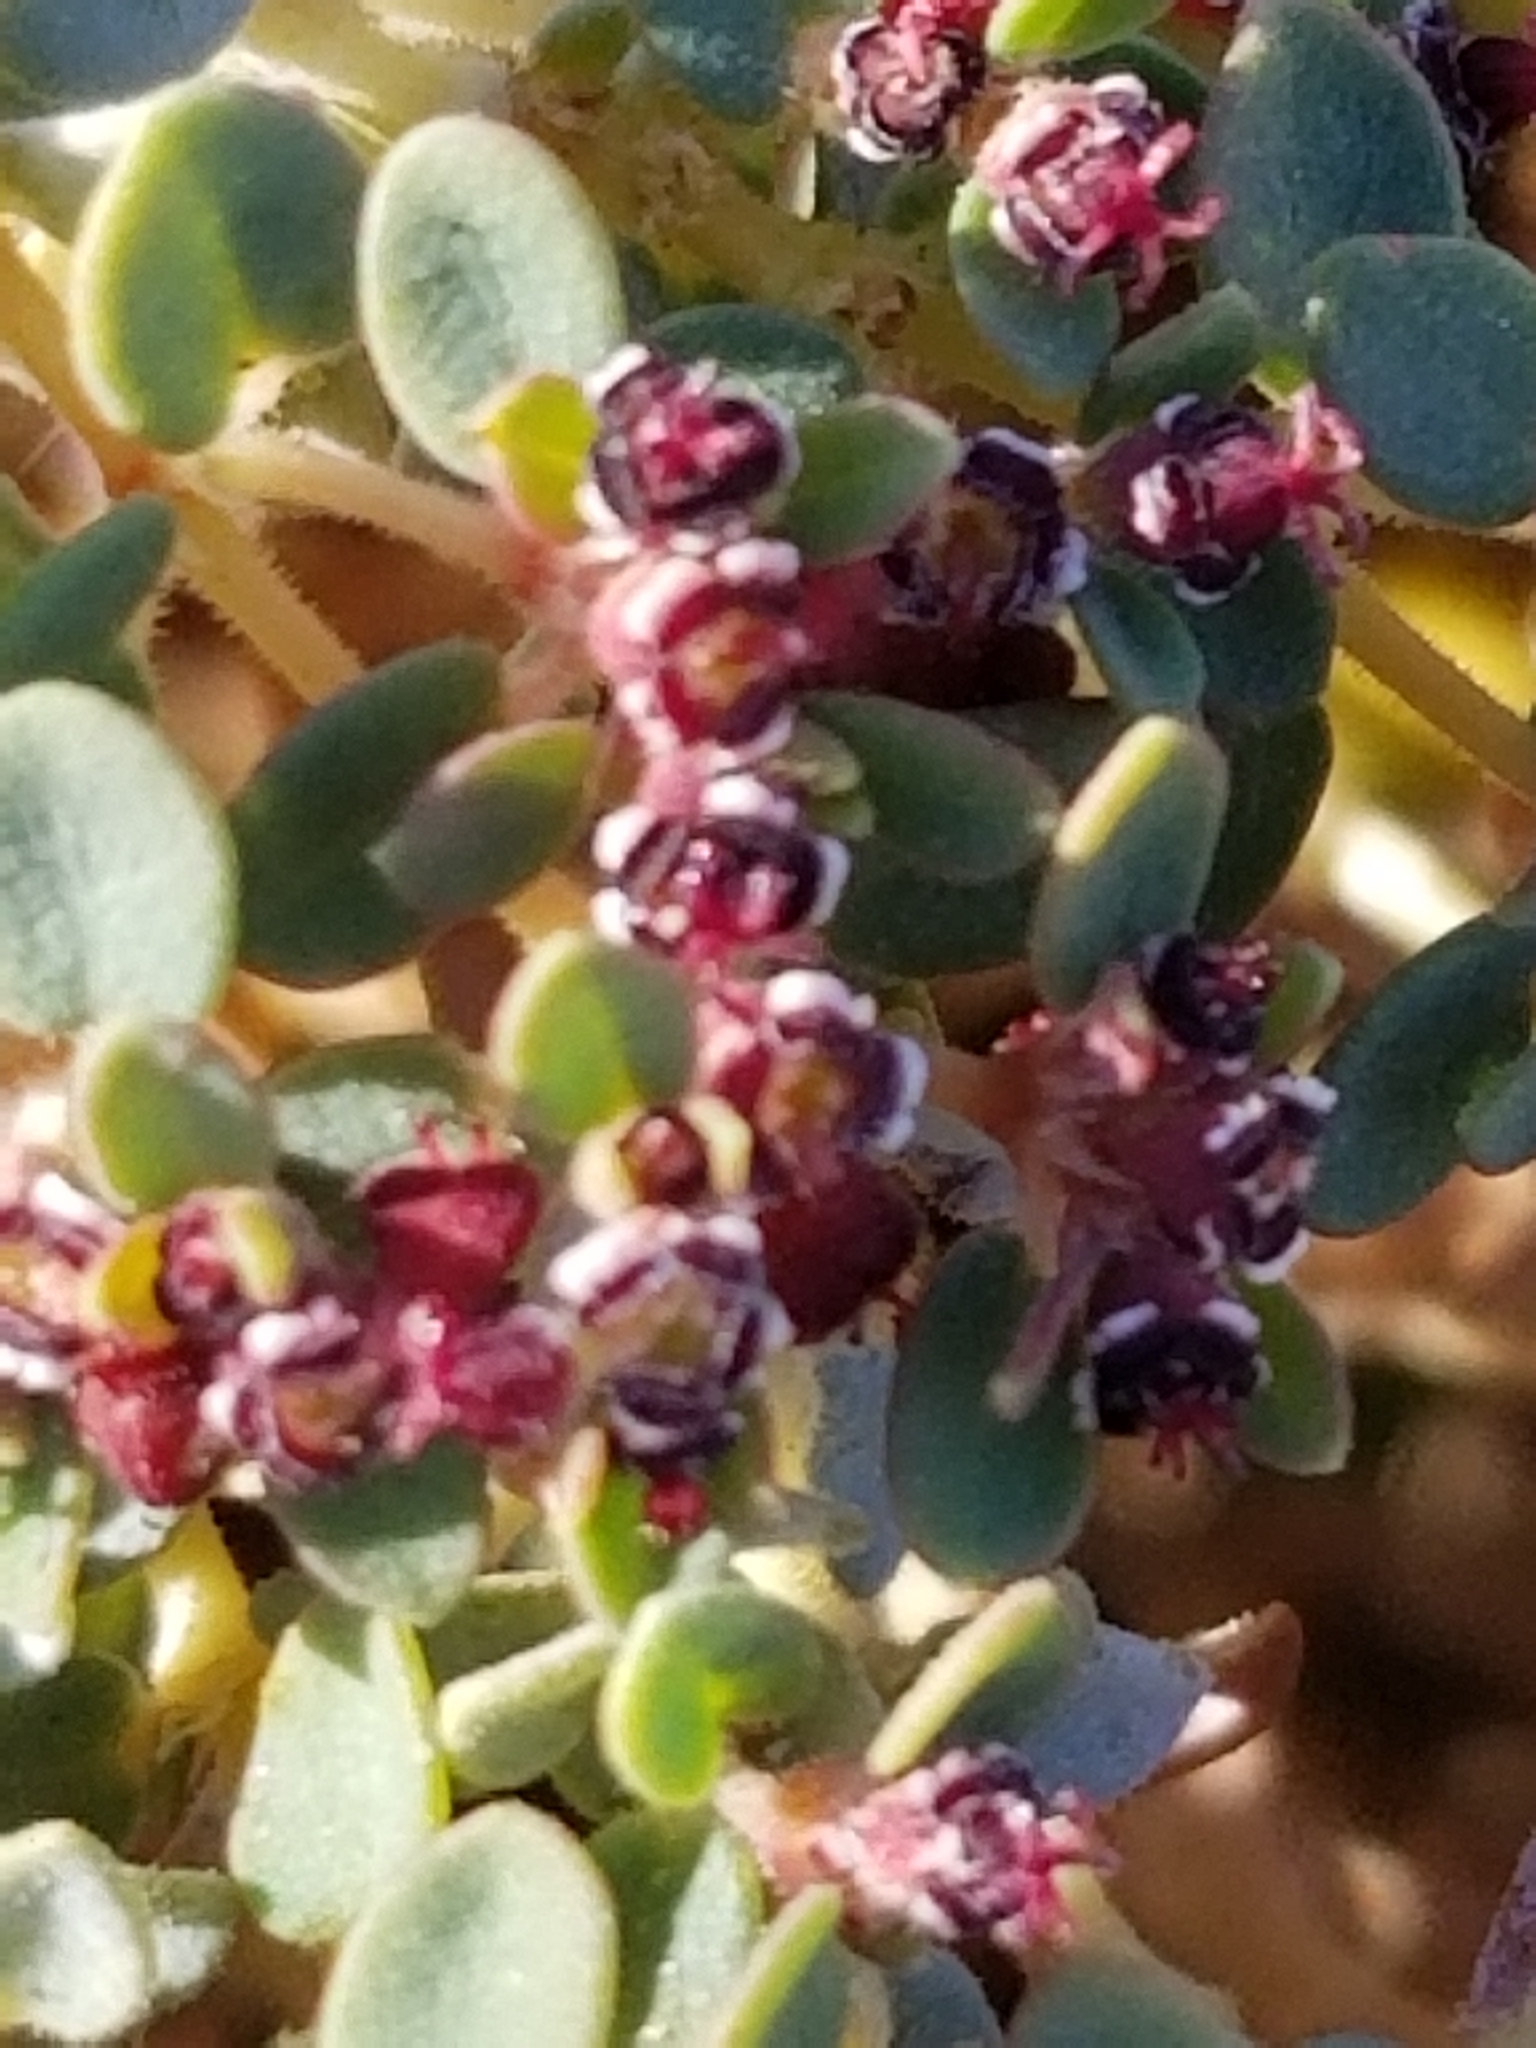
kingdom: Plantae
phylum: Tracheophyta
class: Magnoliopsida
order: Malpighiales
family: Euphorbiaceae
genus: Euphorbia
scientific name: Euphorbia polycarpa
